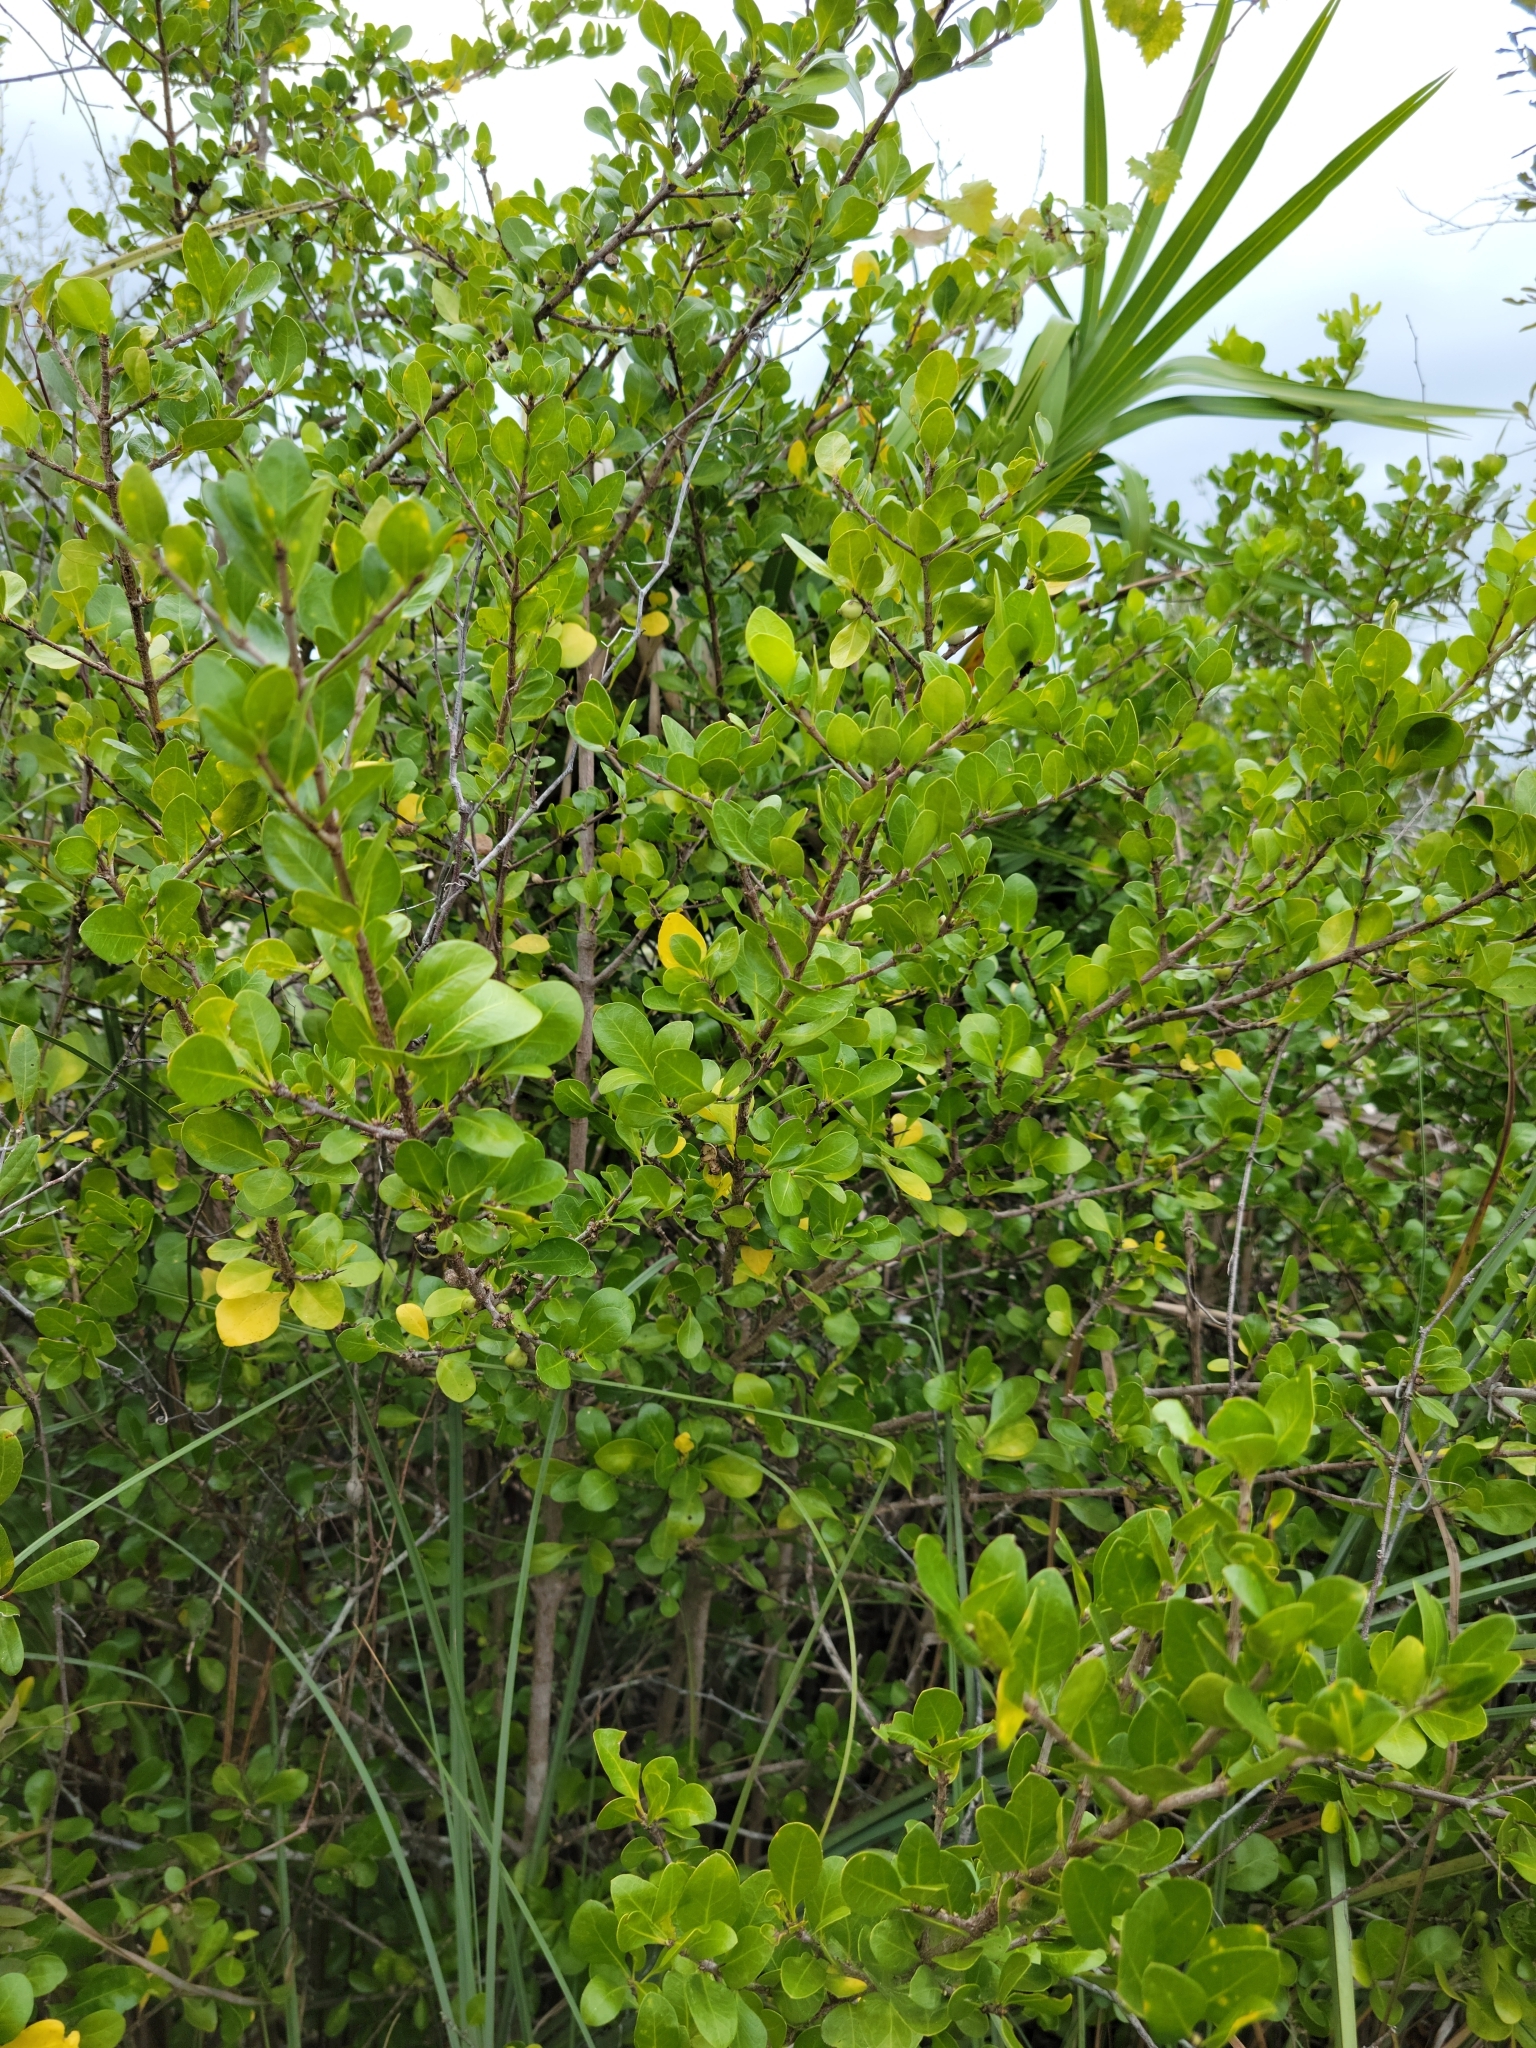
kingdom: Plantae
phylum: Tracheophyta
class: Magnoliopsida
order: Gentianales
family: Rubiaceae
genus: Randia
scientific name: Randia aculeata
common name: Inkberry
